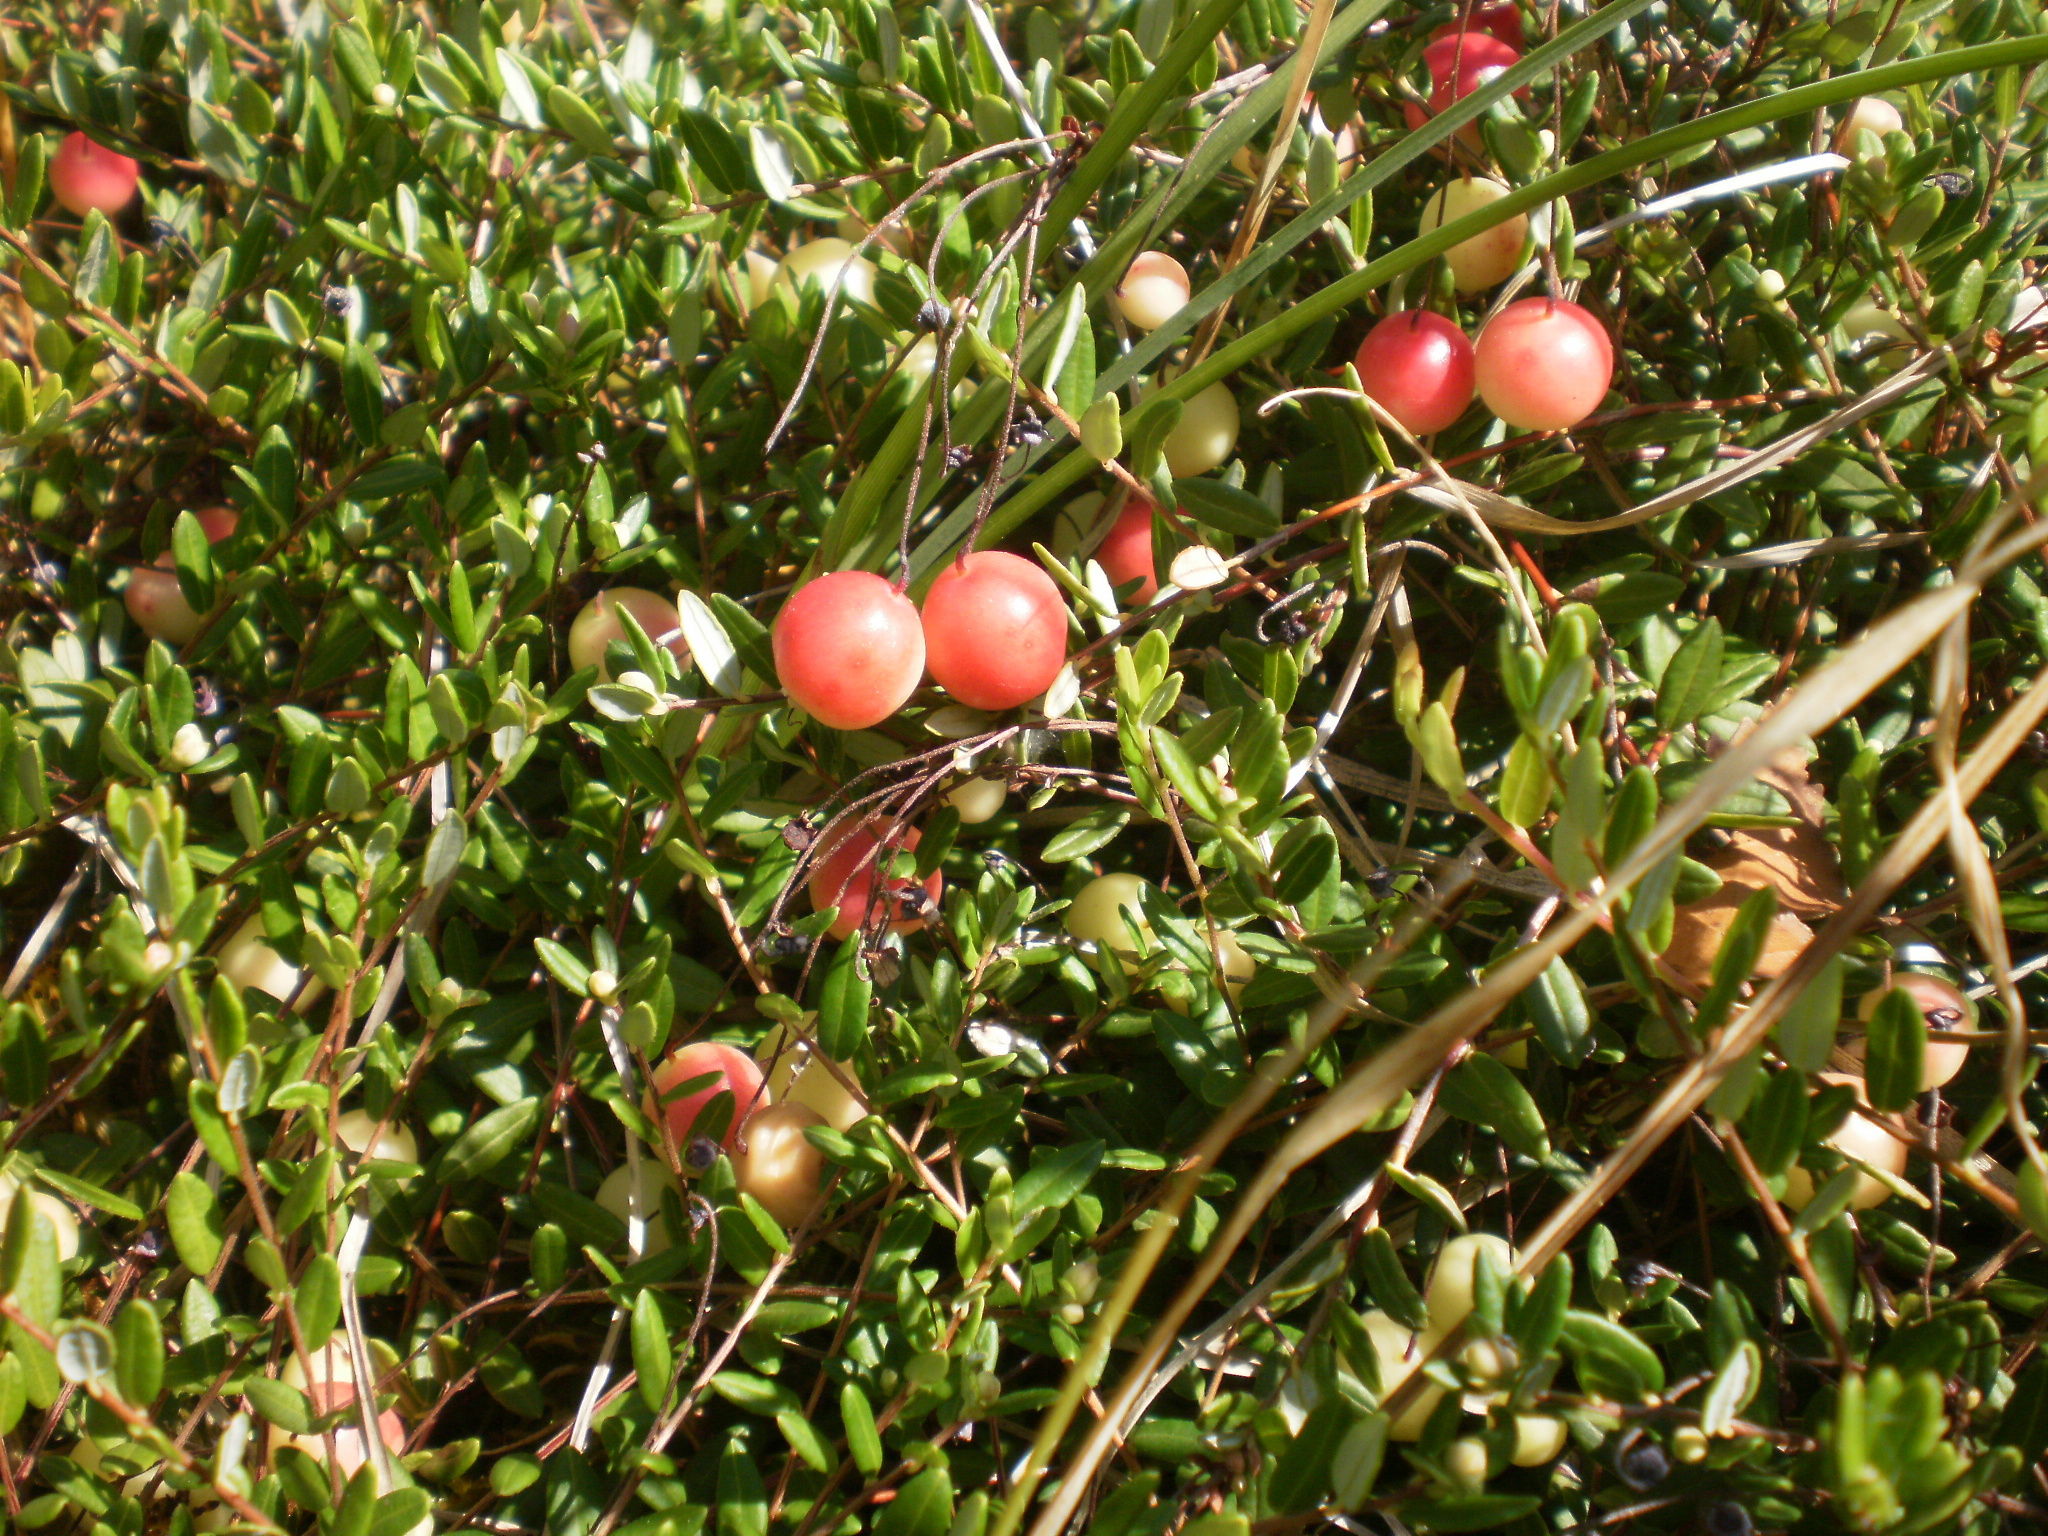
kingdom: Plantae
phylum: Tracheophyta
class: Magnoliopsida
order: Ericales
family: Ericaceae
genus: Vaccinium
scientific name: Vaccinium oxycoccos
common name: Cranberry
